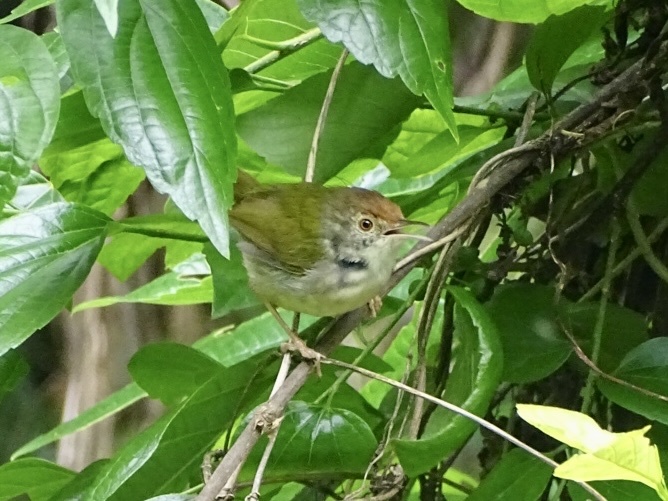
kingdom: Animalia
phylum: Chordata
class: Aves
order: Passeriformes
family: Cisticolidae
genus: Orthotomus
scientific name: Orthotomus sutorius
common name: Common tailorbird
